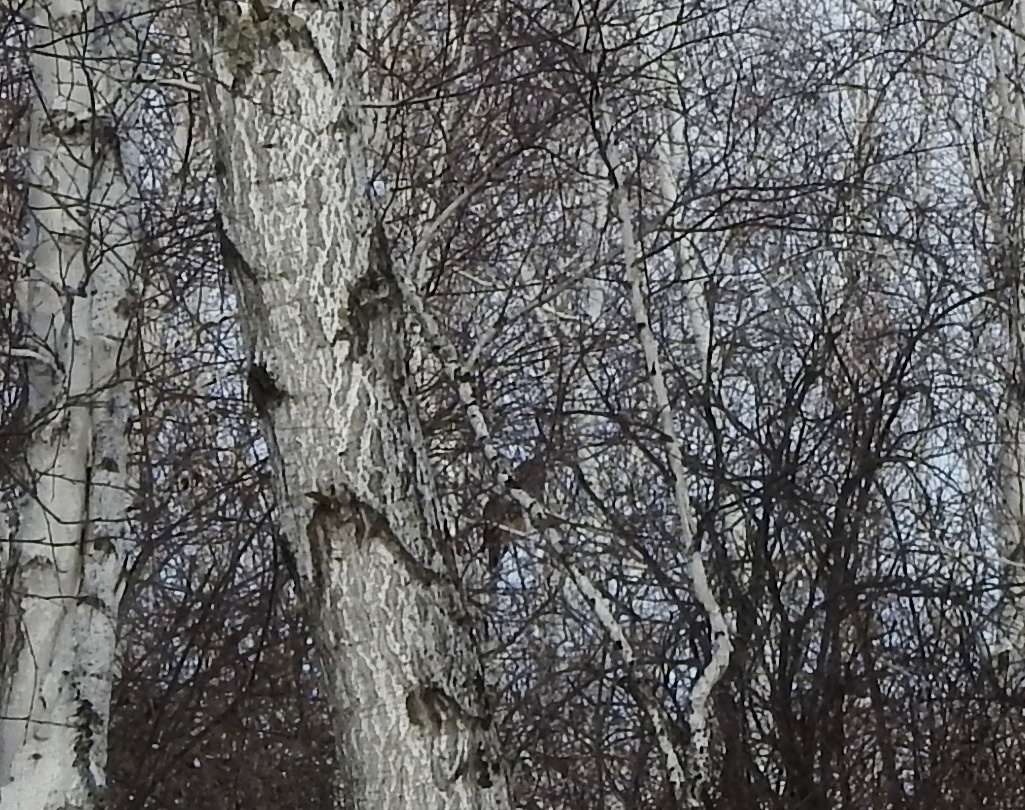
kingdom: Animalia
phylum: Chordata
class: Aves
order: Accipitriformes
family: Accipitridae
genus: Accipiter
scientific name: Accipiter nisus
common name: Eurasian sparrowhawk
